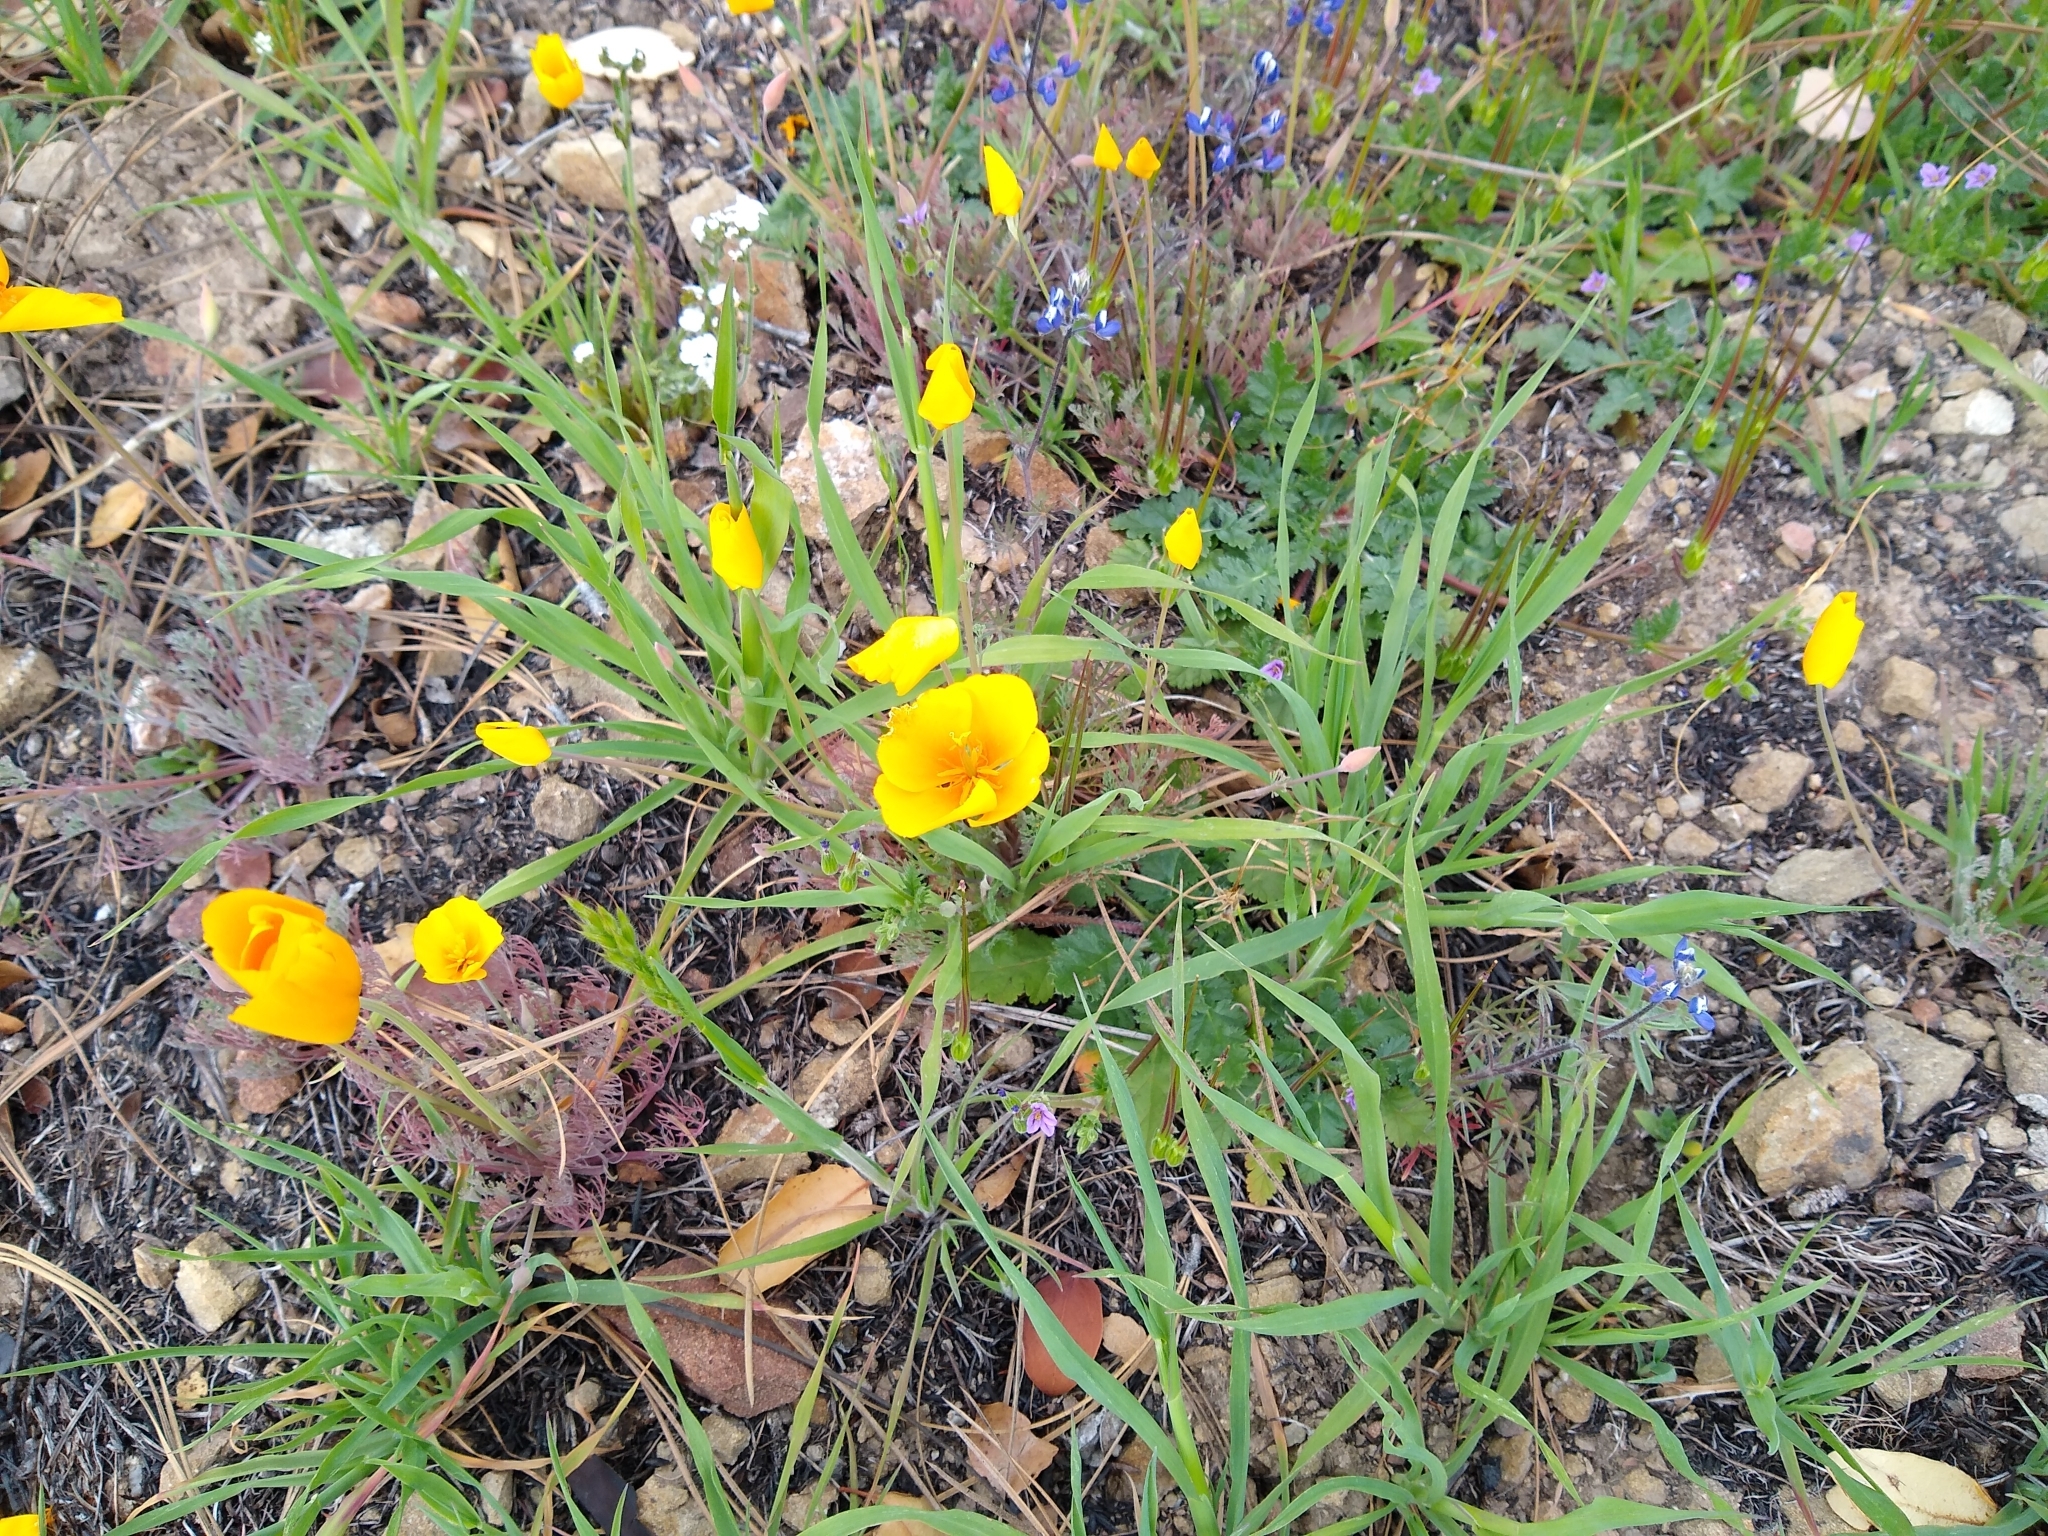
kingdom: Plantae
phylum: Tracheophyta
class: Magnoliopsida
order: Ranunculales
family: Papaveraceae
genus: Eschscholzia
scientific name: Eschscholzia caespitosa
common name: Tufted california-poppy
